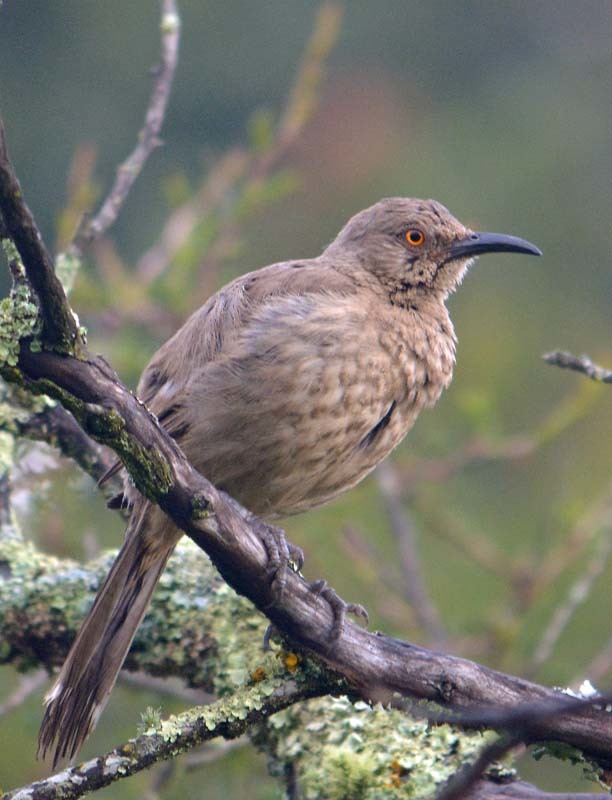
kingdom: Animalia
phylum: Chordata
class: Aves
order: Passeriformes
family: Mimidae
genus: Toxostoma
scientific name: Toxostoma curvirostre
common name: Curve-billed thrasher
